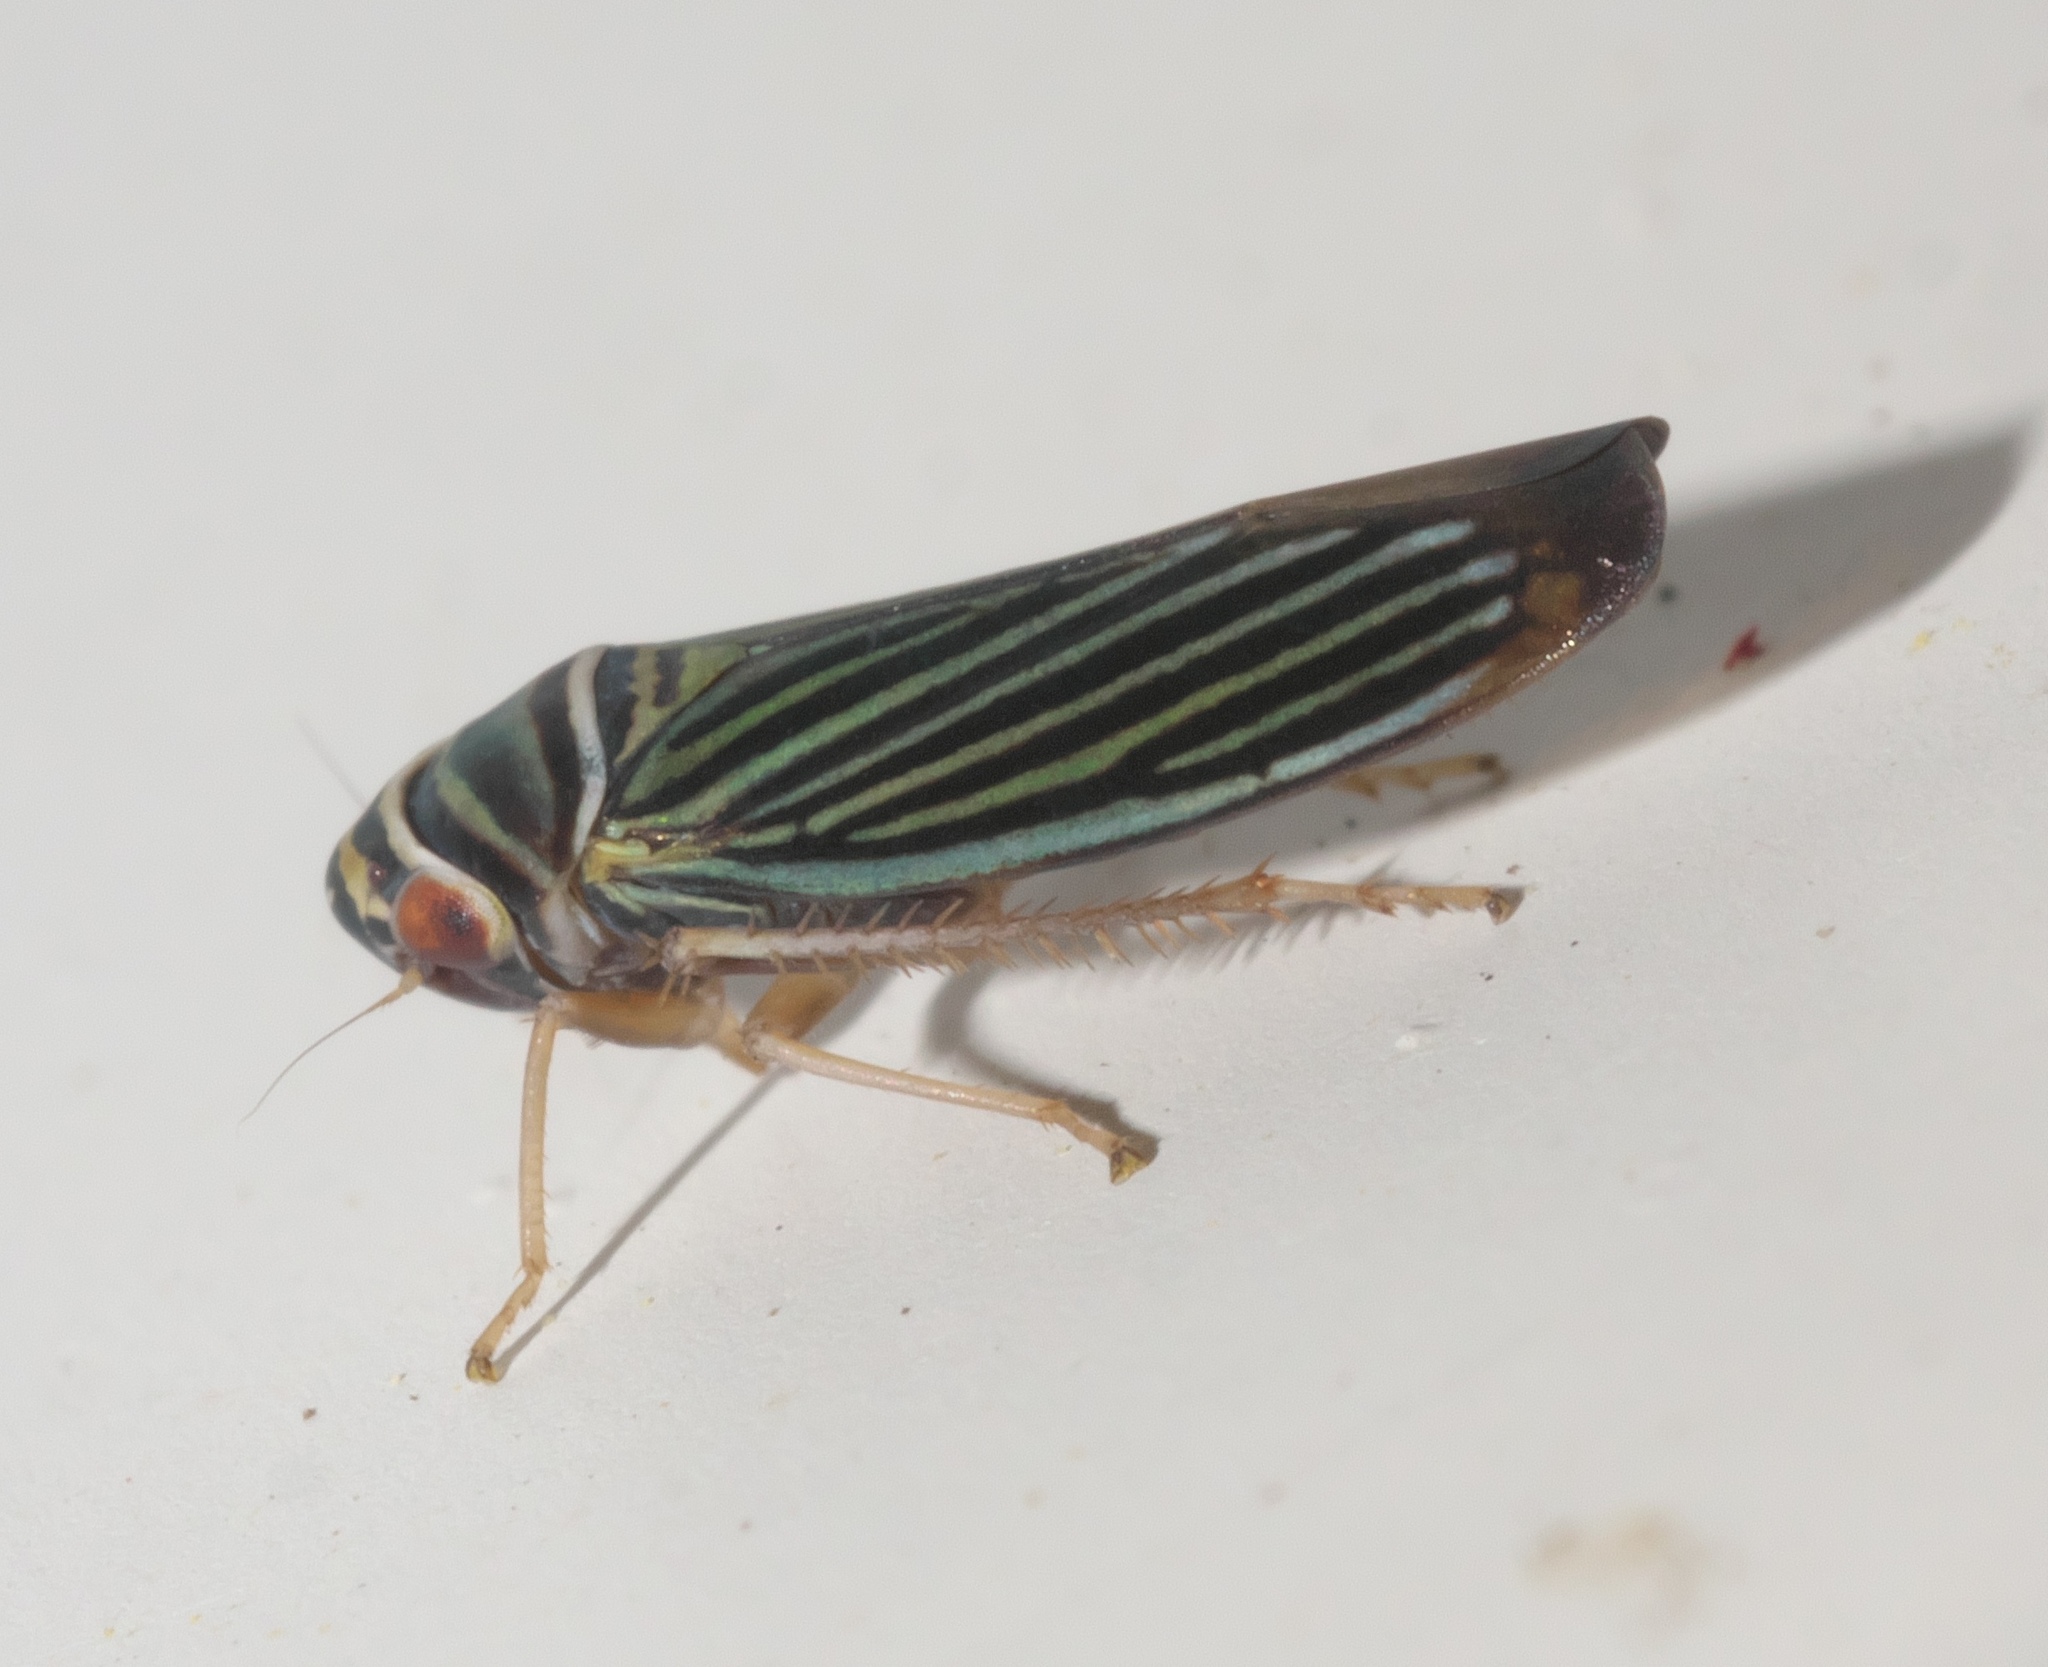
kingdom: Animalia
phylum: Arthropoda
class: Insecta
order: Hemiptera
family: Cicadellidae
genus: Tylozygus
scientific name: Tylozygus bifidus
